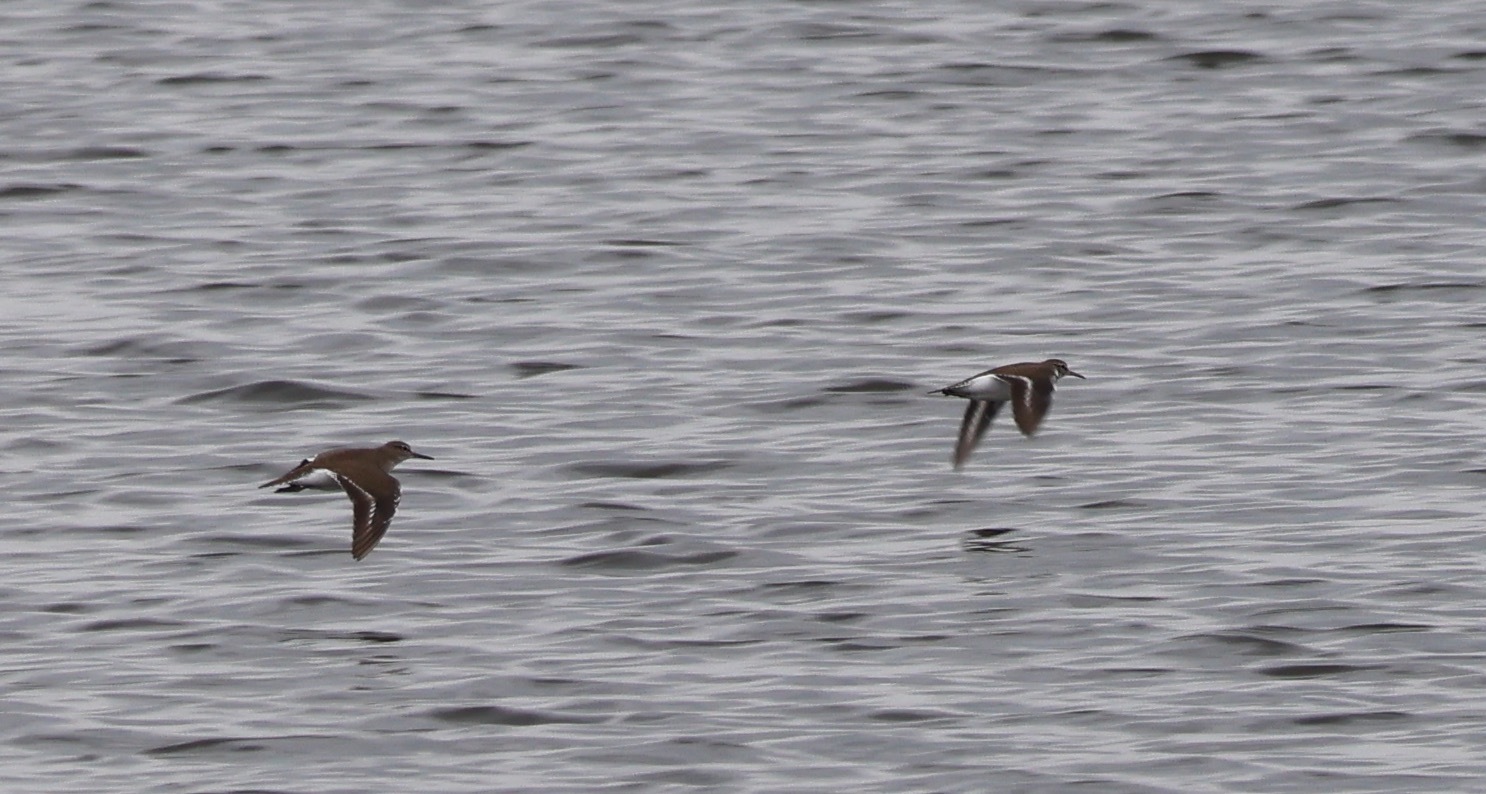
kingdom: Animalia
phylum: Chordata
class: Aves
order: Charadriiformes
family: Scolopacidae
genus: Actitis
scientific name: Actitis hypoleucos
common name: Common sandpiper
